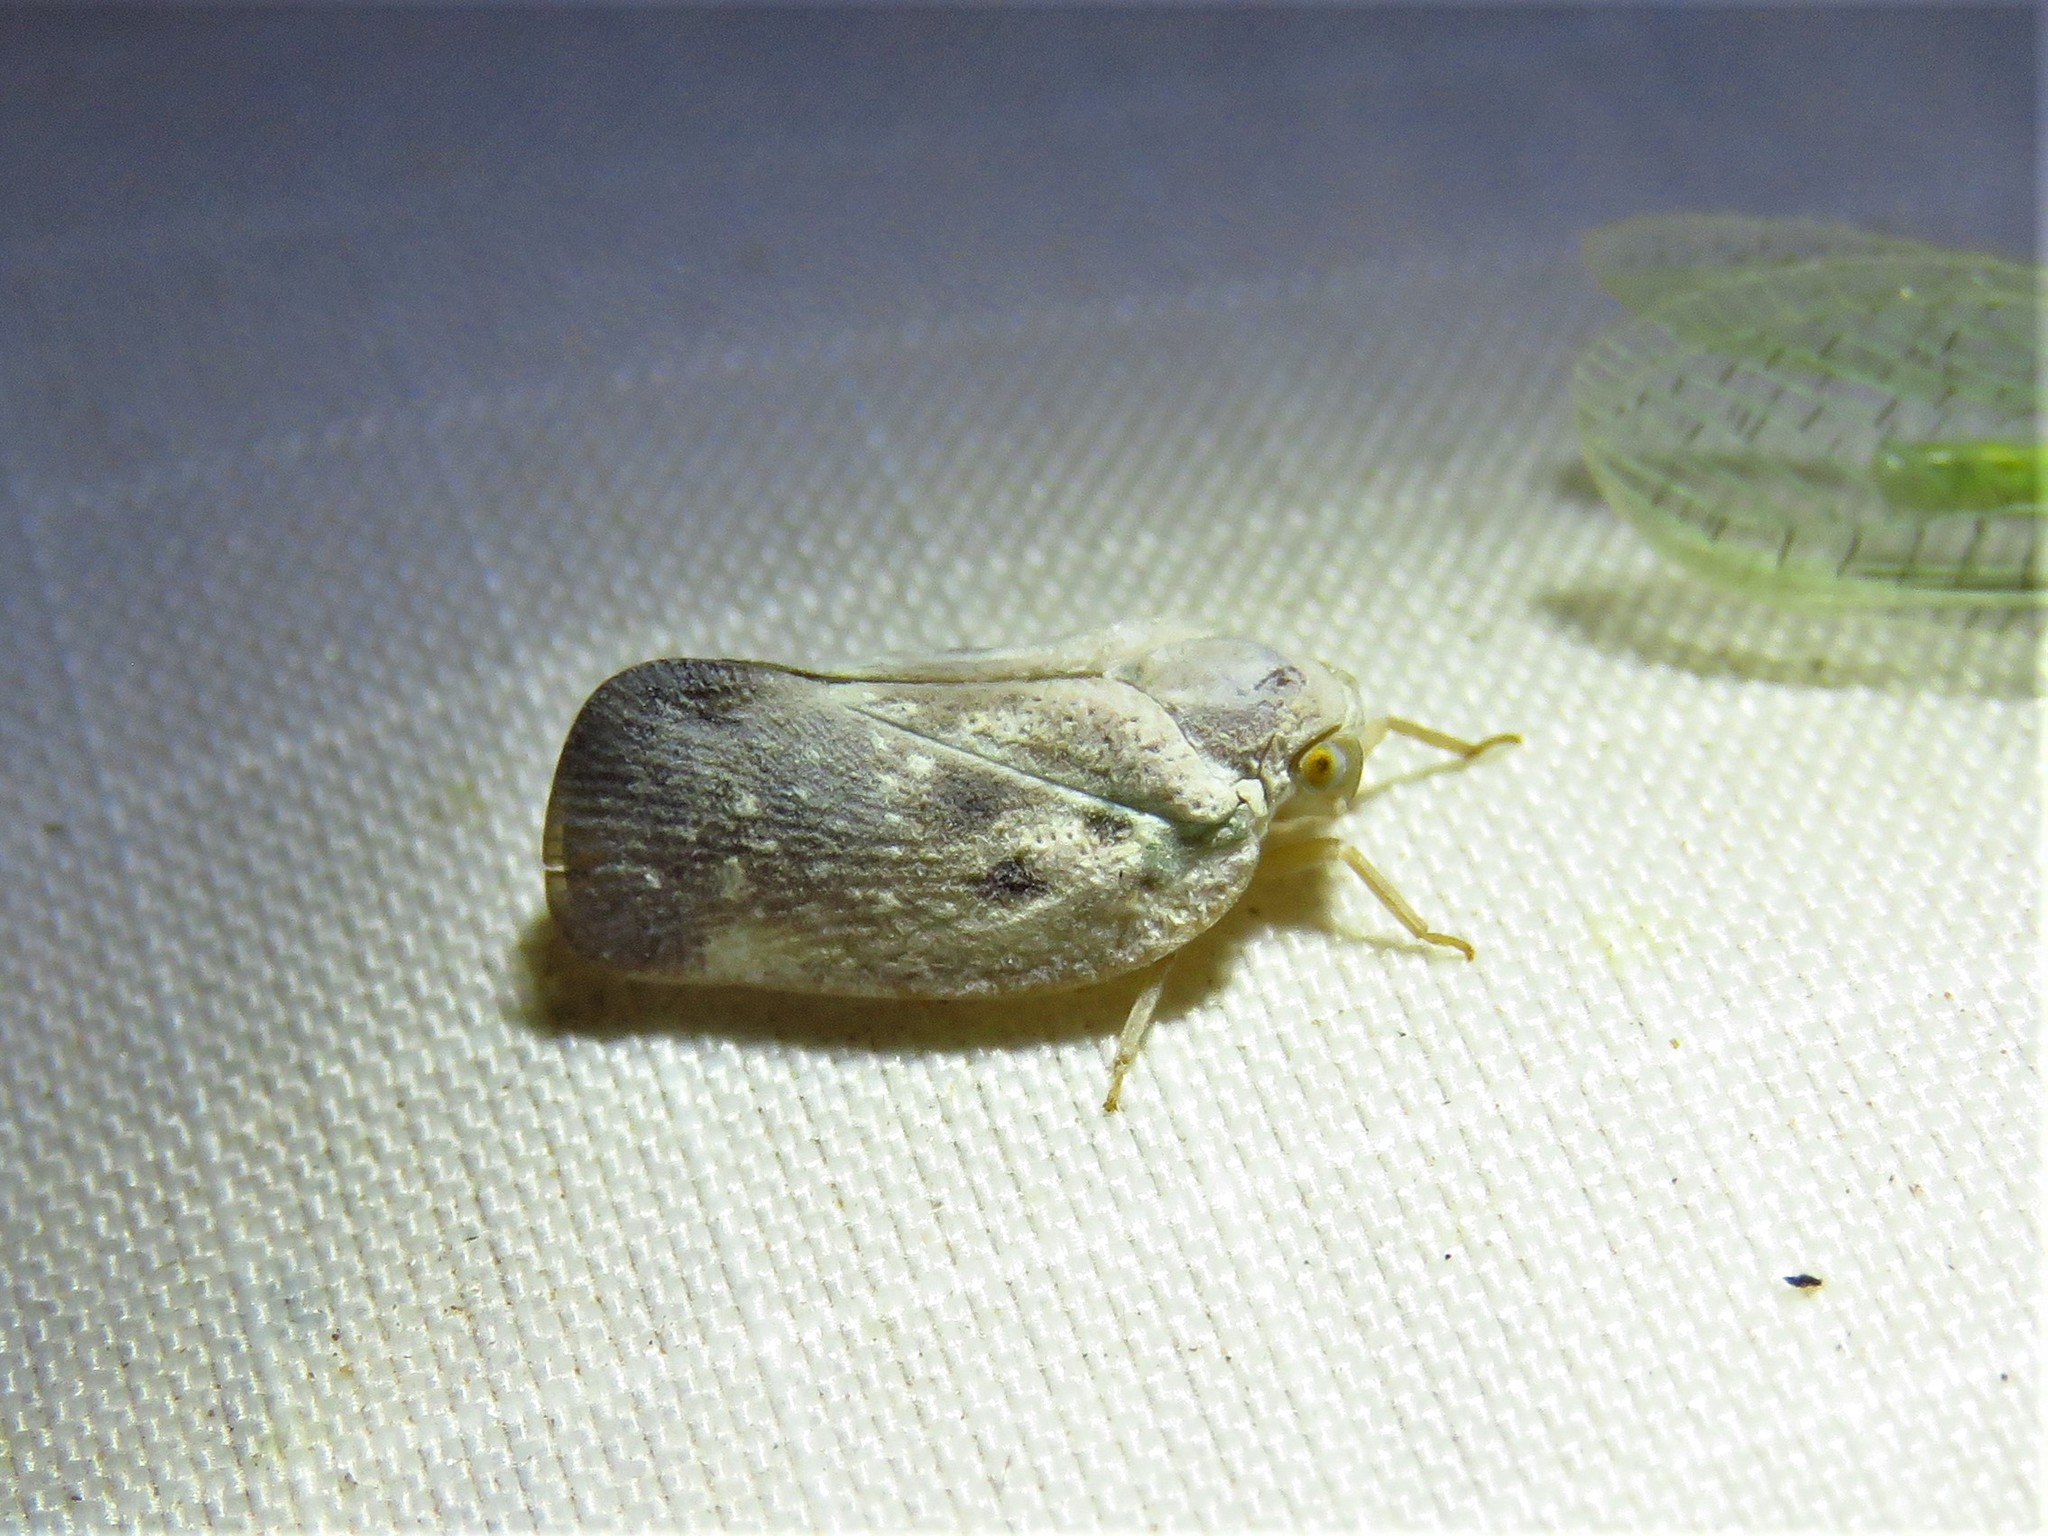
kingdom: Animalia
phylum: Arthropoda
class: Insecta
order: Hemiptera
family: Flatidae
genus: Metcalfa
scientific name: Metcalfa pruinosa
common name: Citrus flatid planthopper
